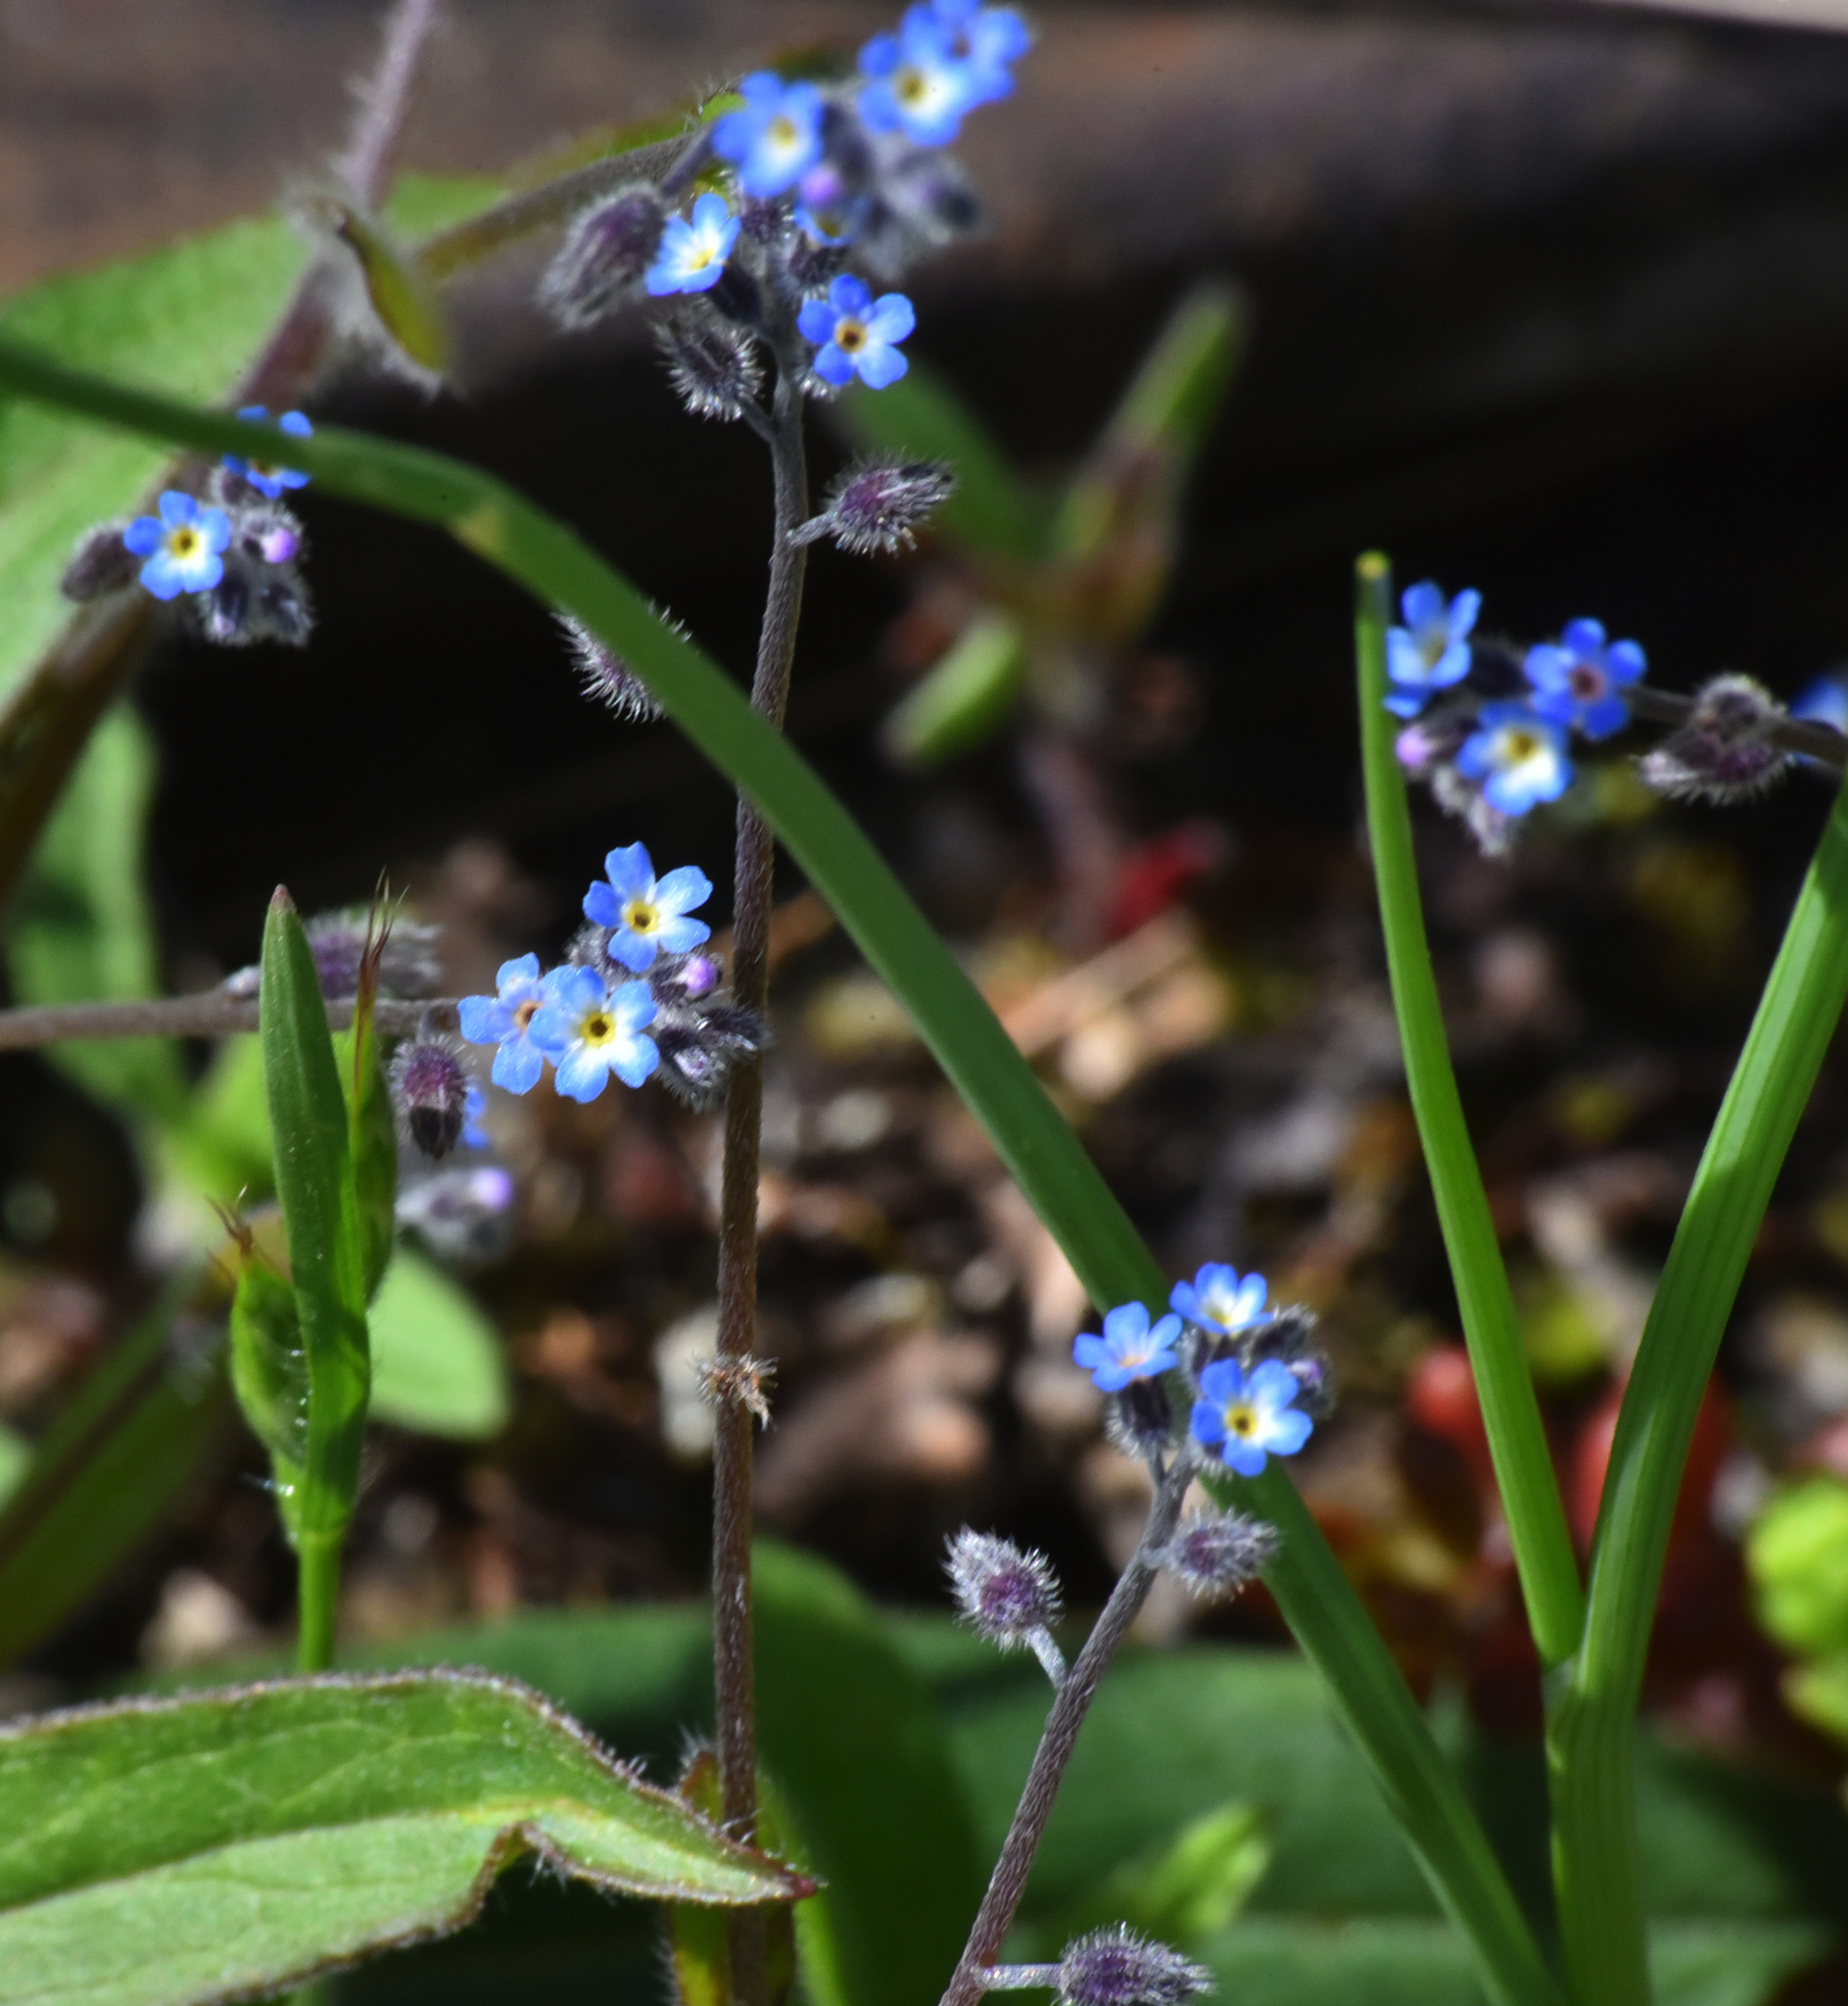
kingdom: Plantae
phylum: Tracheophyta
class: Magnoliopsida
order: Boraginales
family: Boraginaceae
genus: Myosotis
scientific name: Myosotis arvensis
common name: Field forget-me-not
